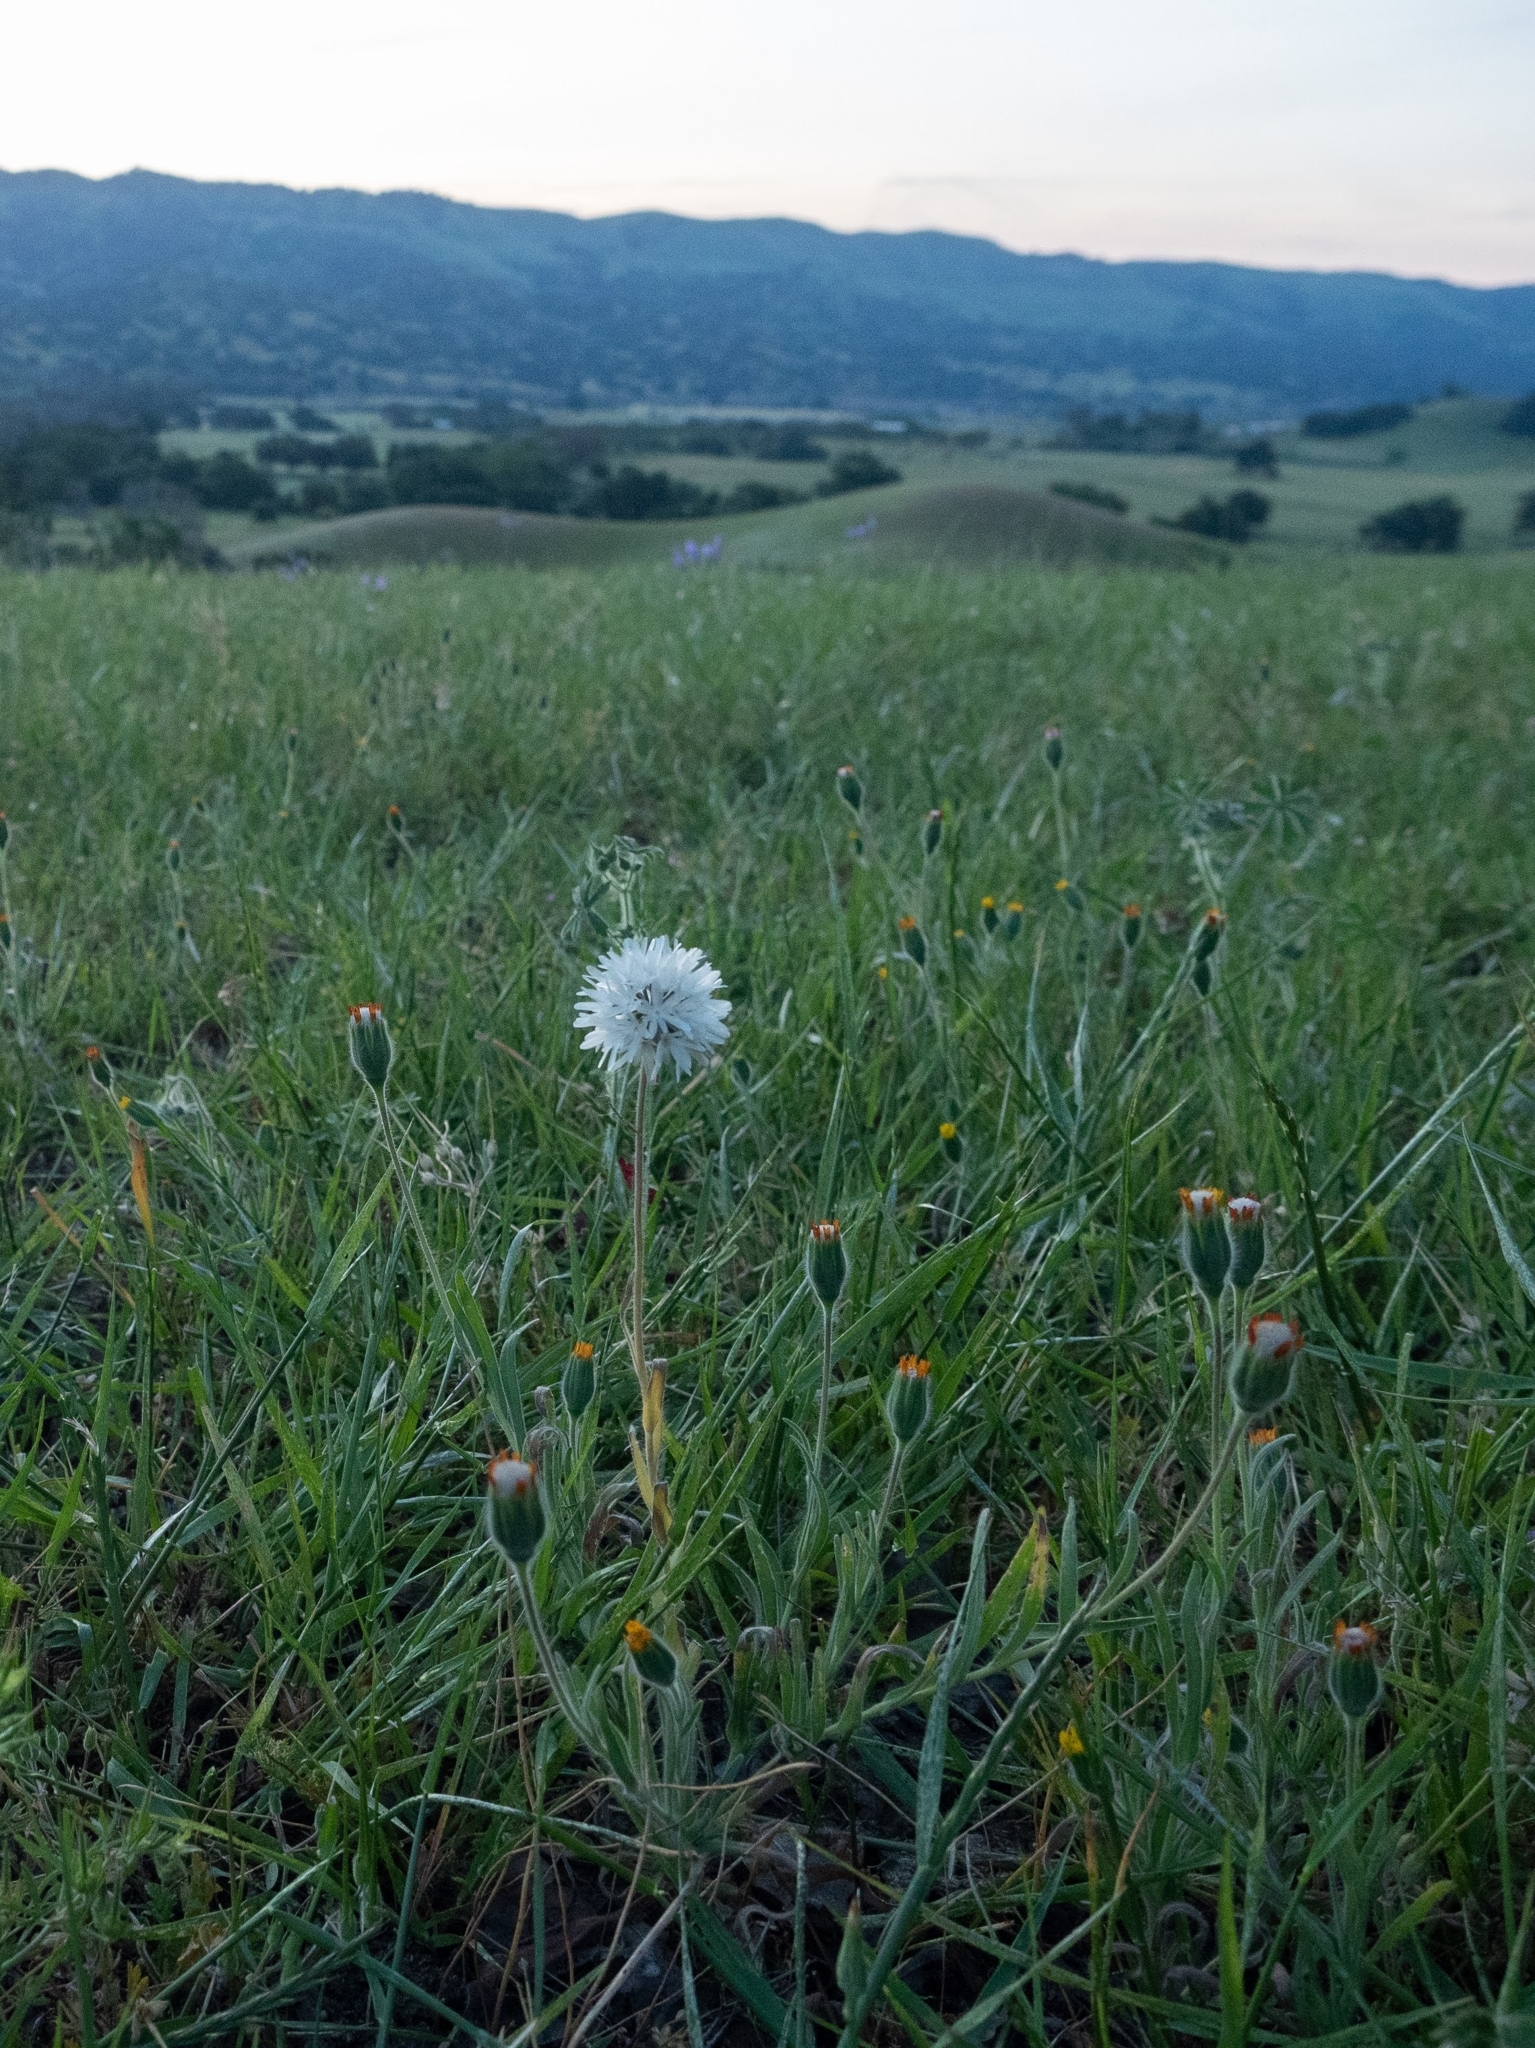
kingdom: Plantae
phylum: Tracheophyta
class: Magnoliopsida
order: Asterales
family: Asteraceae
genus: Achyrachaena
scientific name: Achyrachaena mollis
